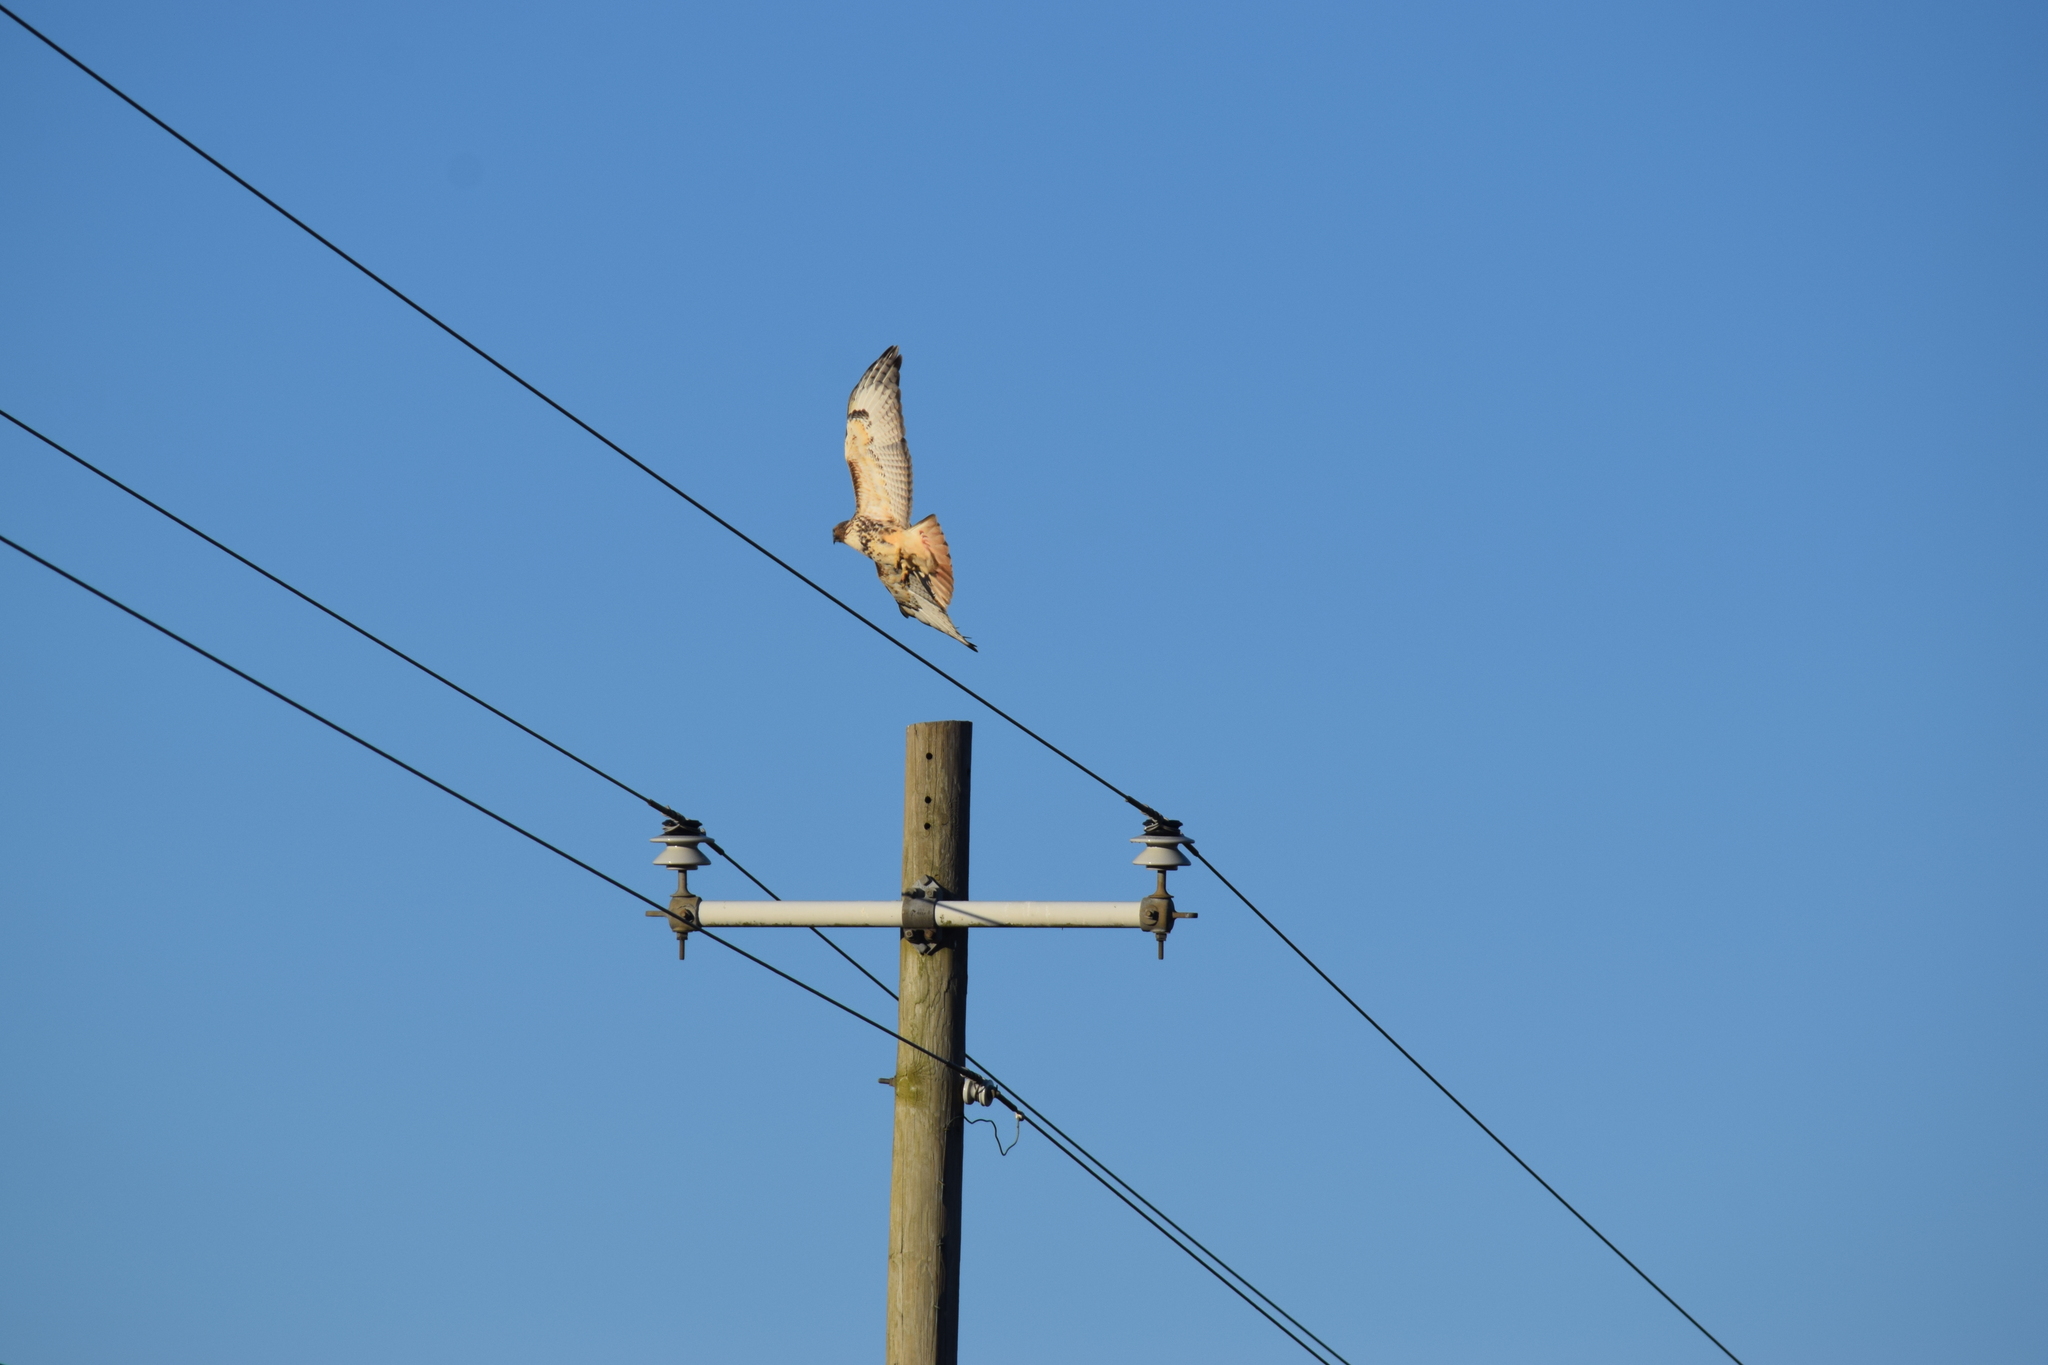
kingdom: Animalia
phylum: Chordata
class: Aves
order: Accipitriformes
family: Accipitridae
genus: Buteo
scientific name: Buteo jamaicensis
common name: Red-tailed hawk
